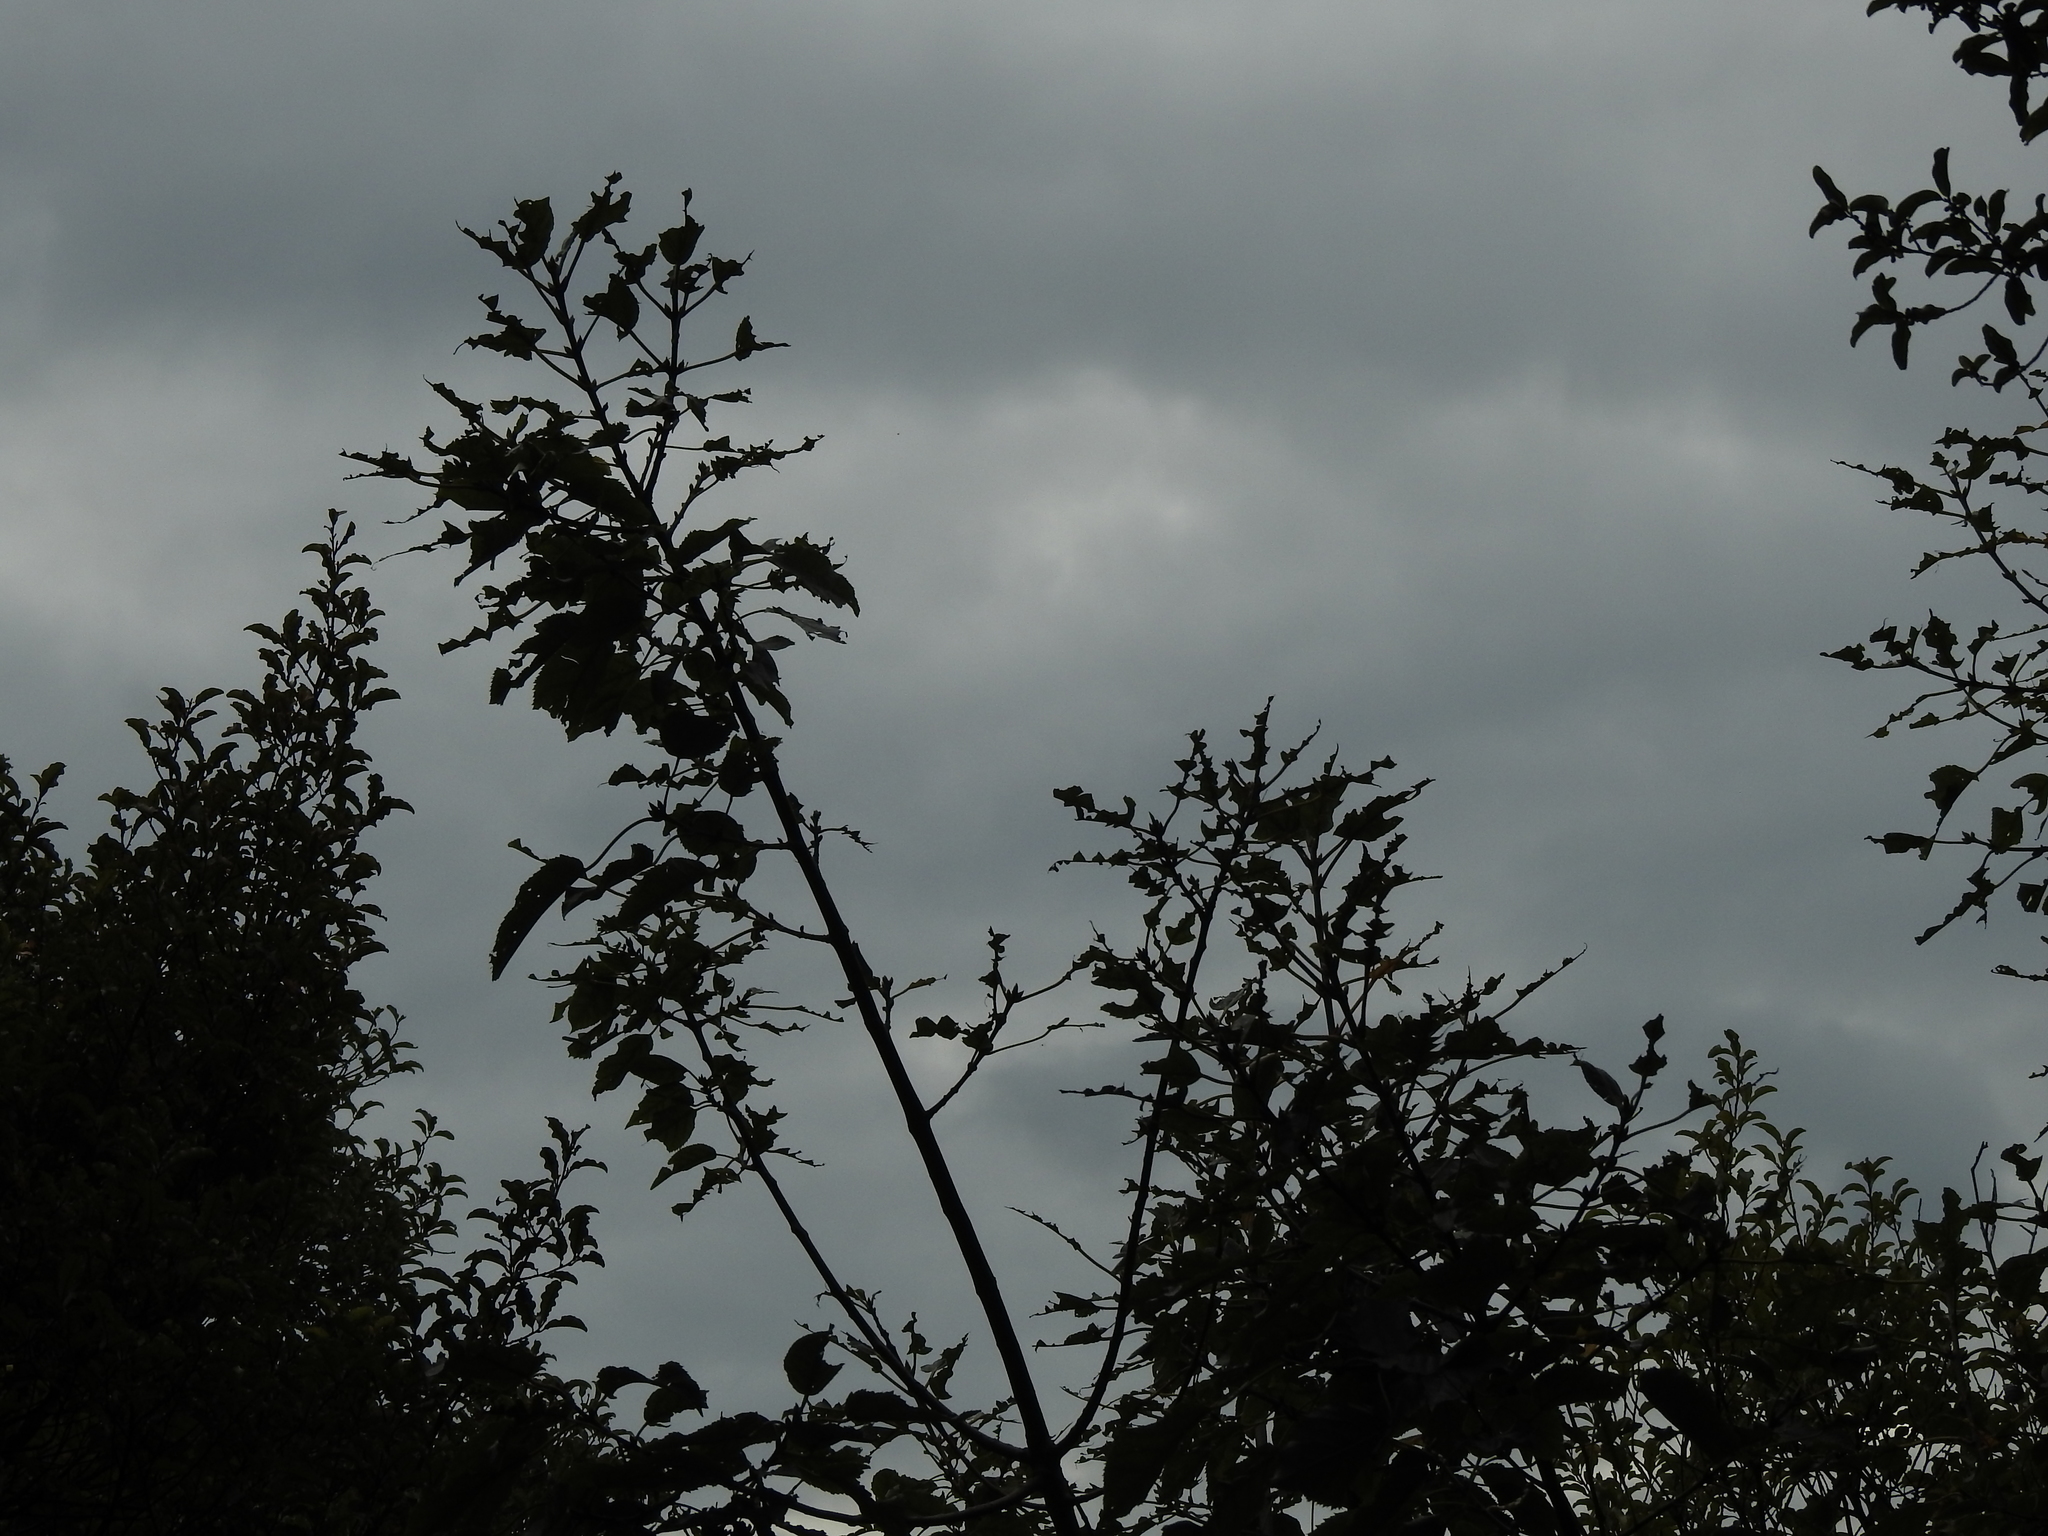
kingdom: Animalia
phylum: Chordata
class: Mammalia
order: Diprotodontia
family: Phalangeridae
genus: Trichosurus
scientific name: Trichosurus vulpecula
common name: Common brushtail
